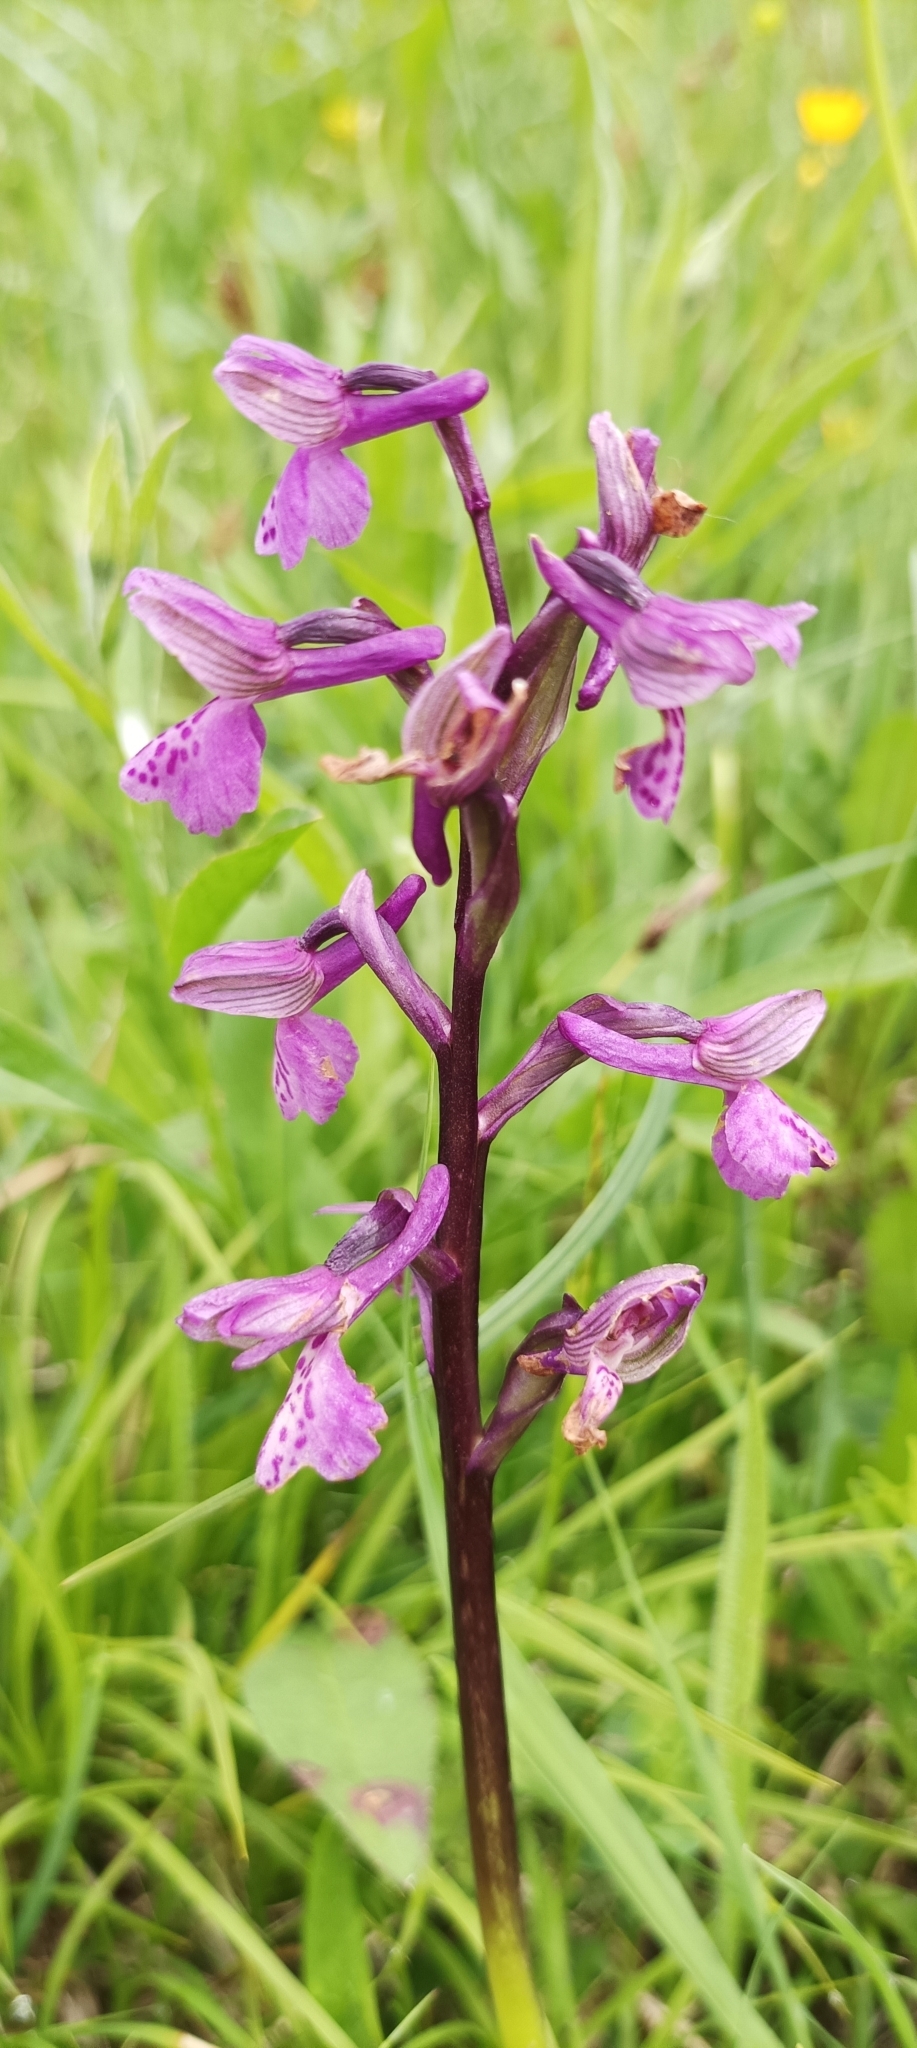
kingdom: Plantae
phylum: Tracheophyta
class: Liliopsida
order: Asparagales
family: Orchidaceae
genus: Anacamptis
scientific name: Anacamptis morio
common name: Green-winged orchid
